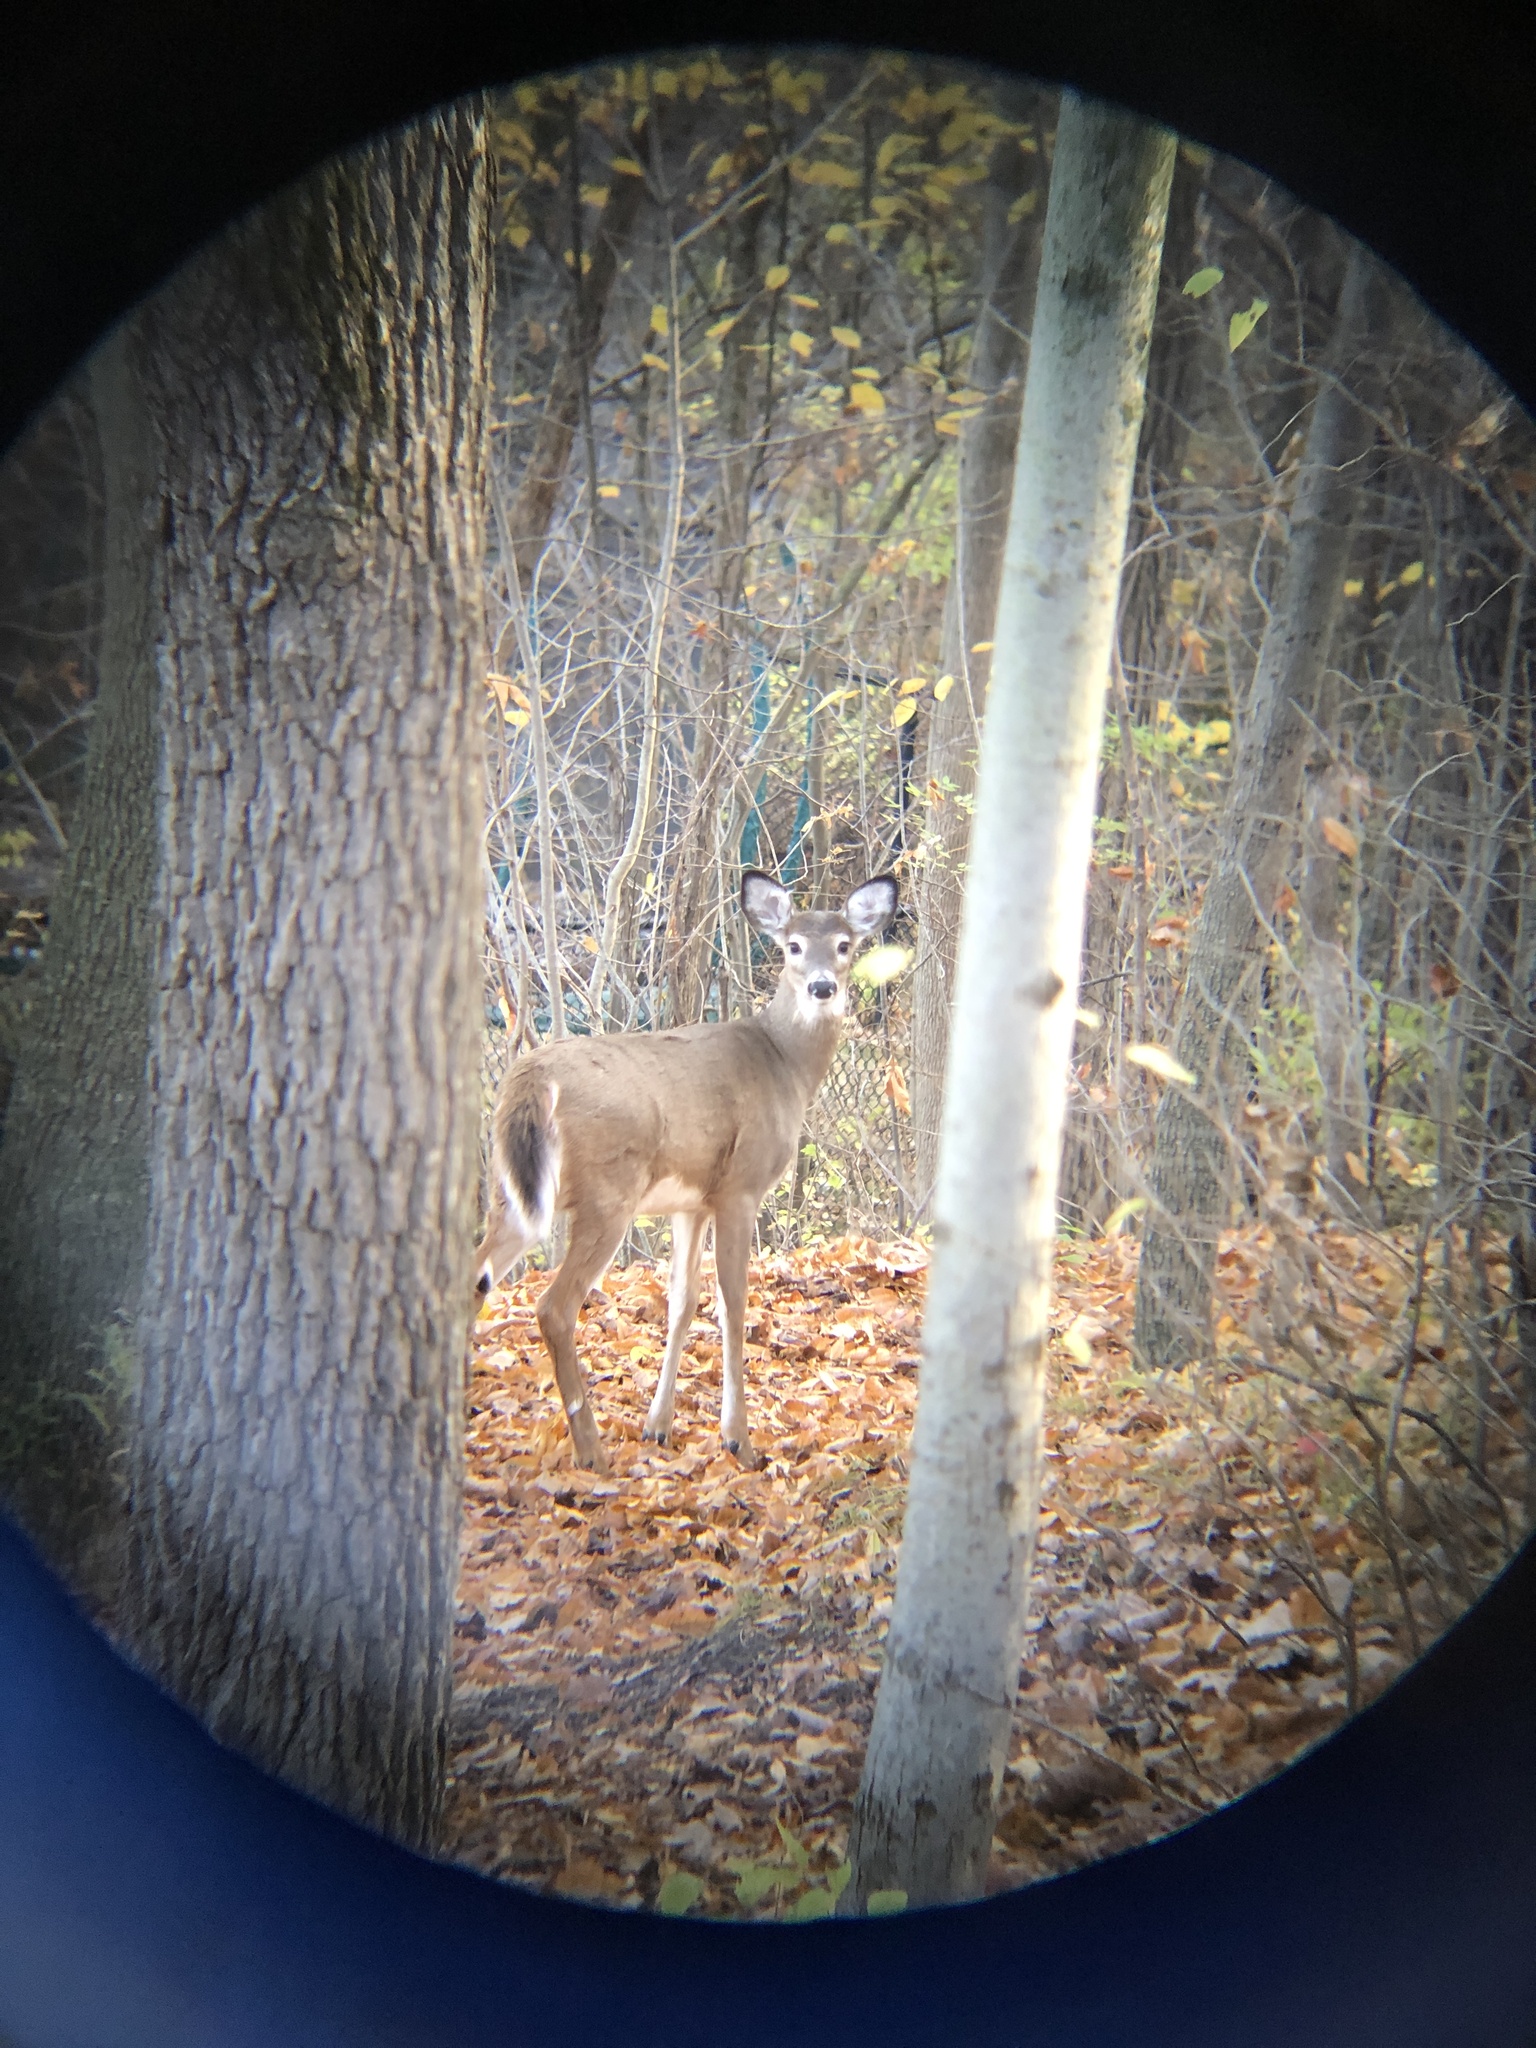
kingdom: Animalia
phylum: Chordata
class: Mammalia
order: Artiodactyla
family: Cervidae
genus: Odocoileus
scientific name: Odocoileus virginianus
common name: White-tailed deer
